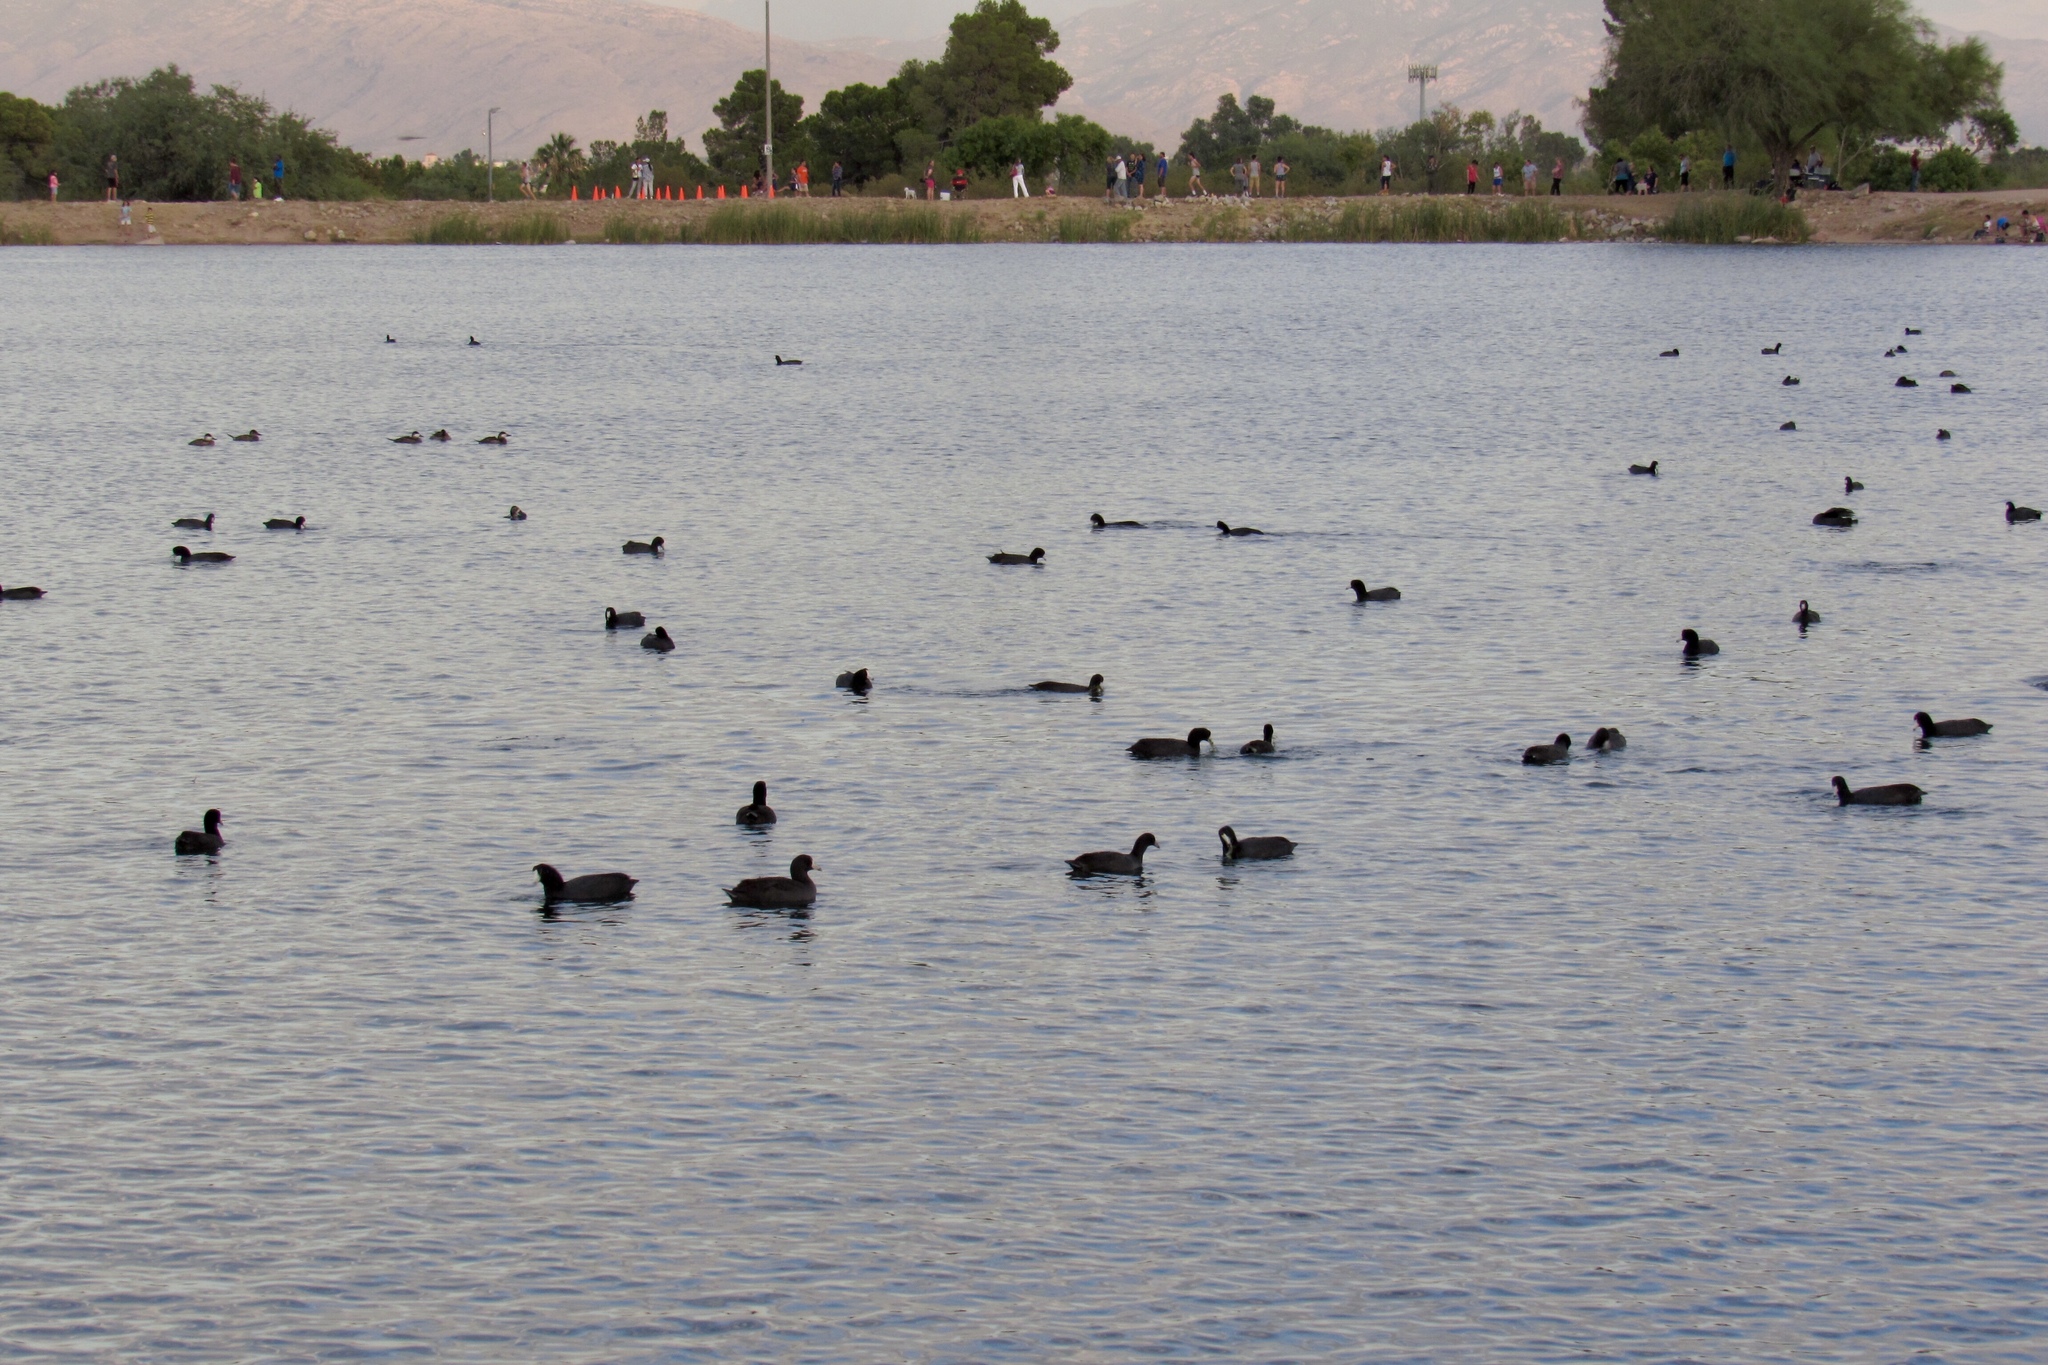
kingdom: Animalia
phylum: Chordata
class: Aves
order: Gruiformes
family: Rallidae
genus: Fulica
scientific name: Fulica americana
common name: American coot
